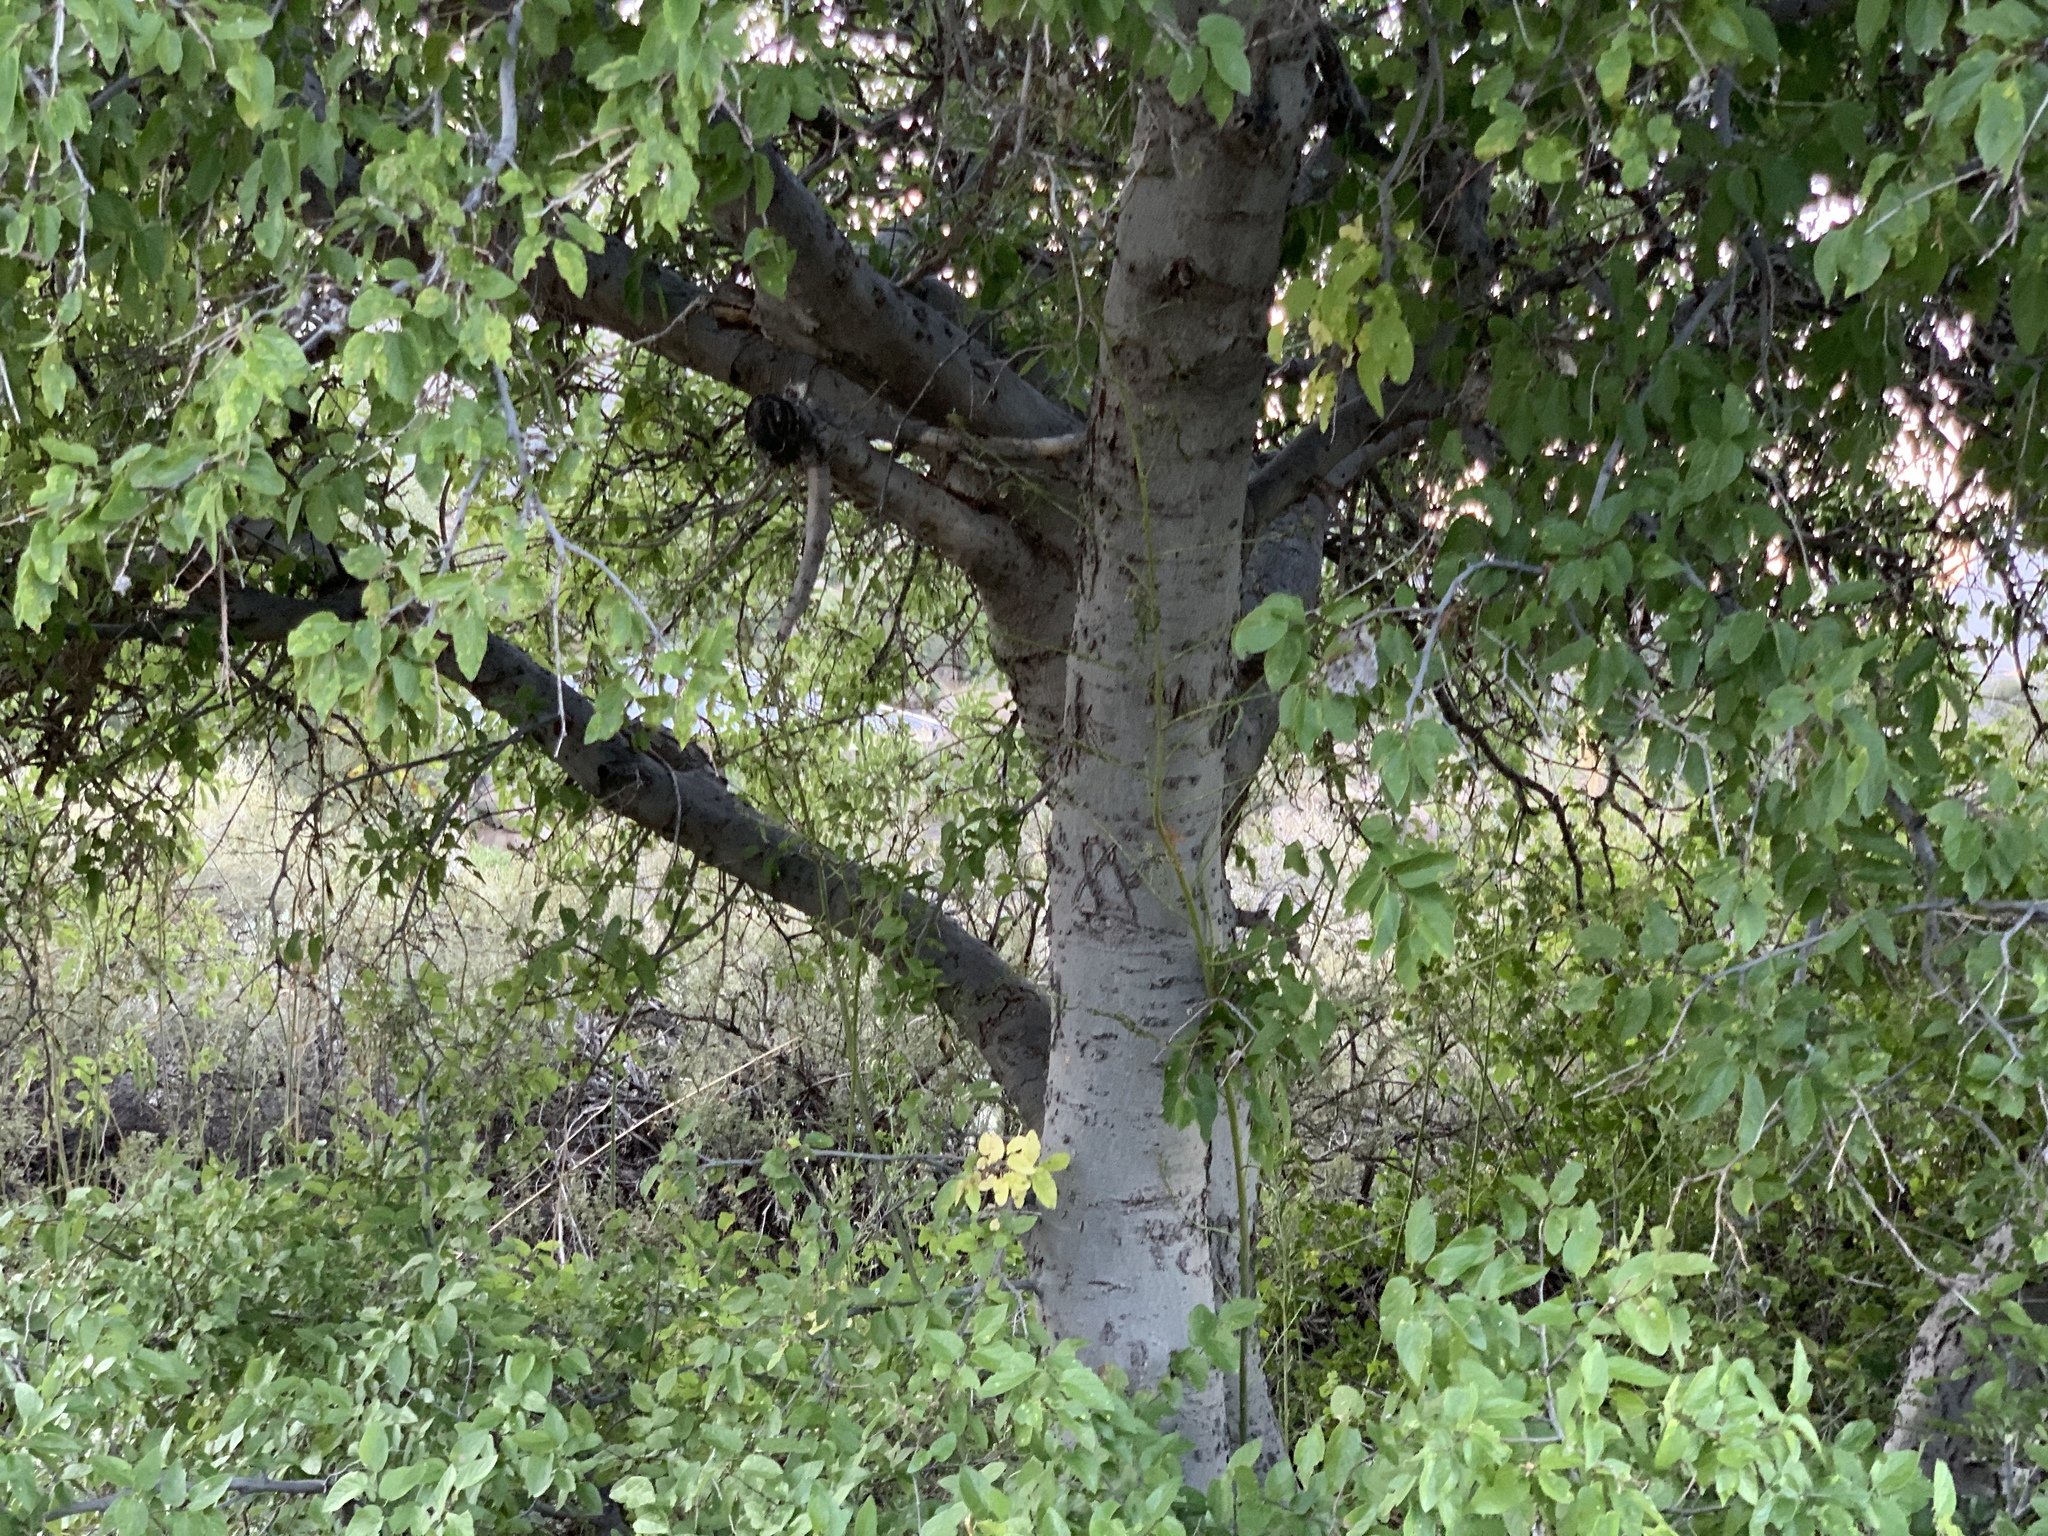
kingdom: Plantae
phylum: Tracheophyta
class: Magnoliopsida
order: Rosales
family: Cannabaceae
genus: Celtis
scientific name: Celtis reticulata
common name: Netleaf hackberry
